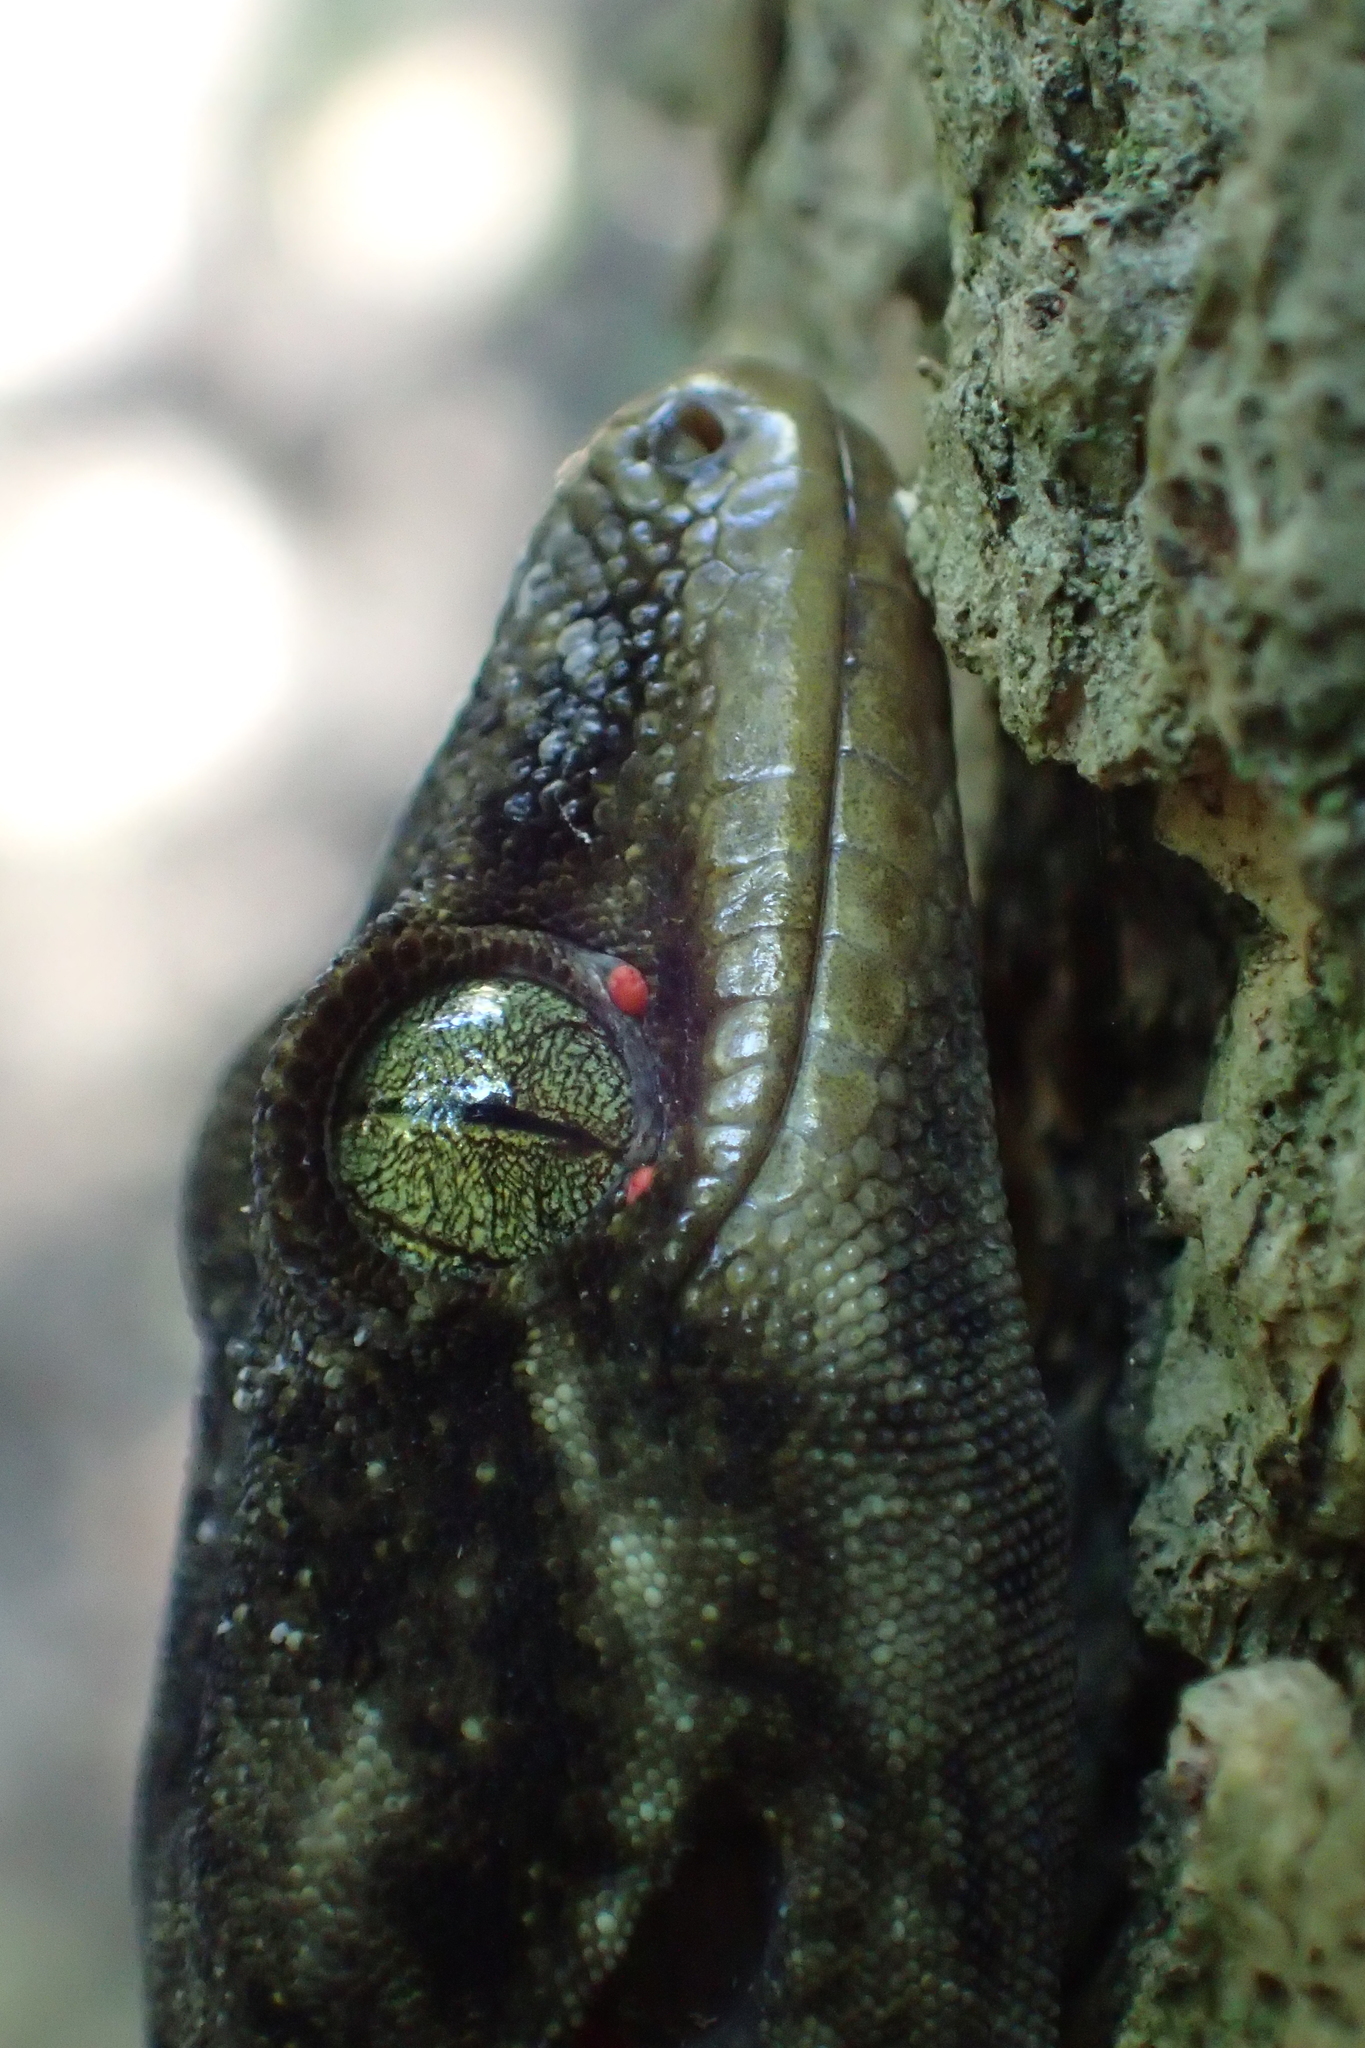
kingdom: Animalia
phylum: Arthropoda
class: Arachnida
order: Trombidiformes
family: Pterygosomatidae
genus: Geckobia
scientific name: Geckobia
